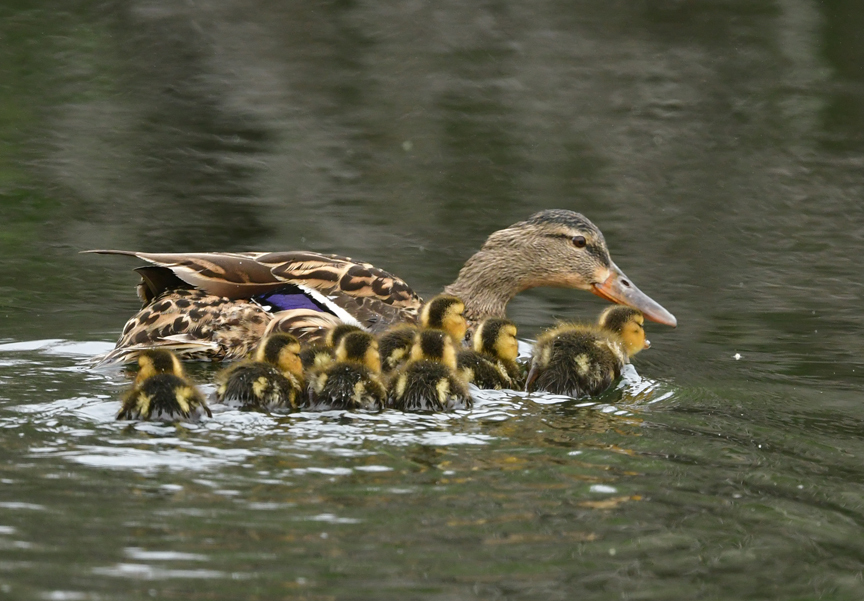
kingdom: Animalia
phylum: Chordata
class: Aves
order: Anseriformes
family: Anatidae
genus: Anas
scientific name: Anas platyrhynchos
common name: Mallard
